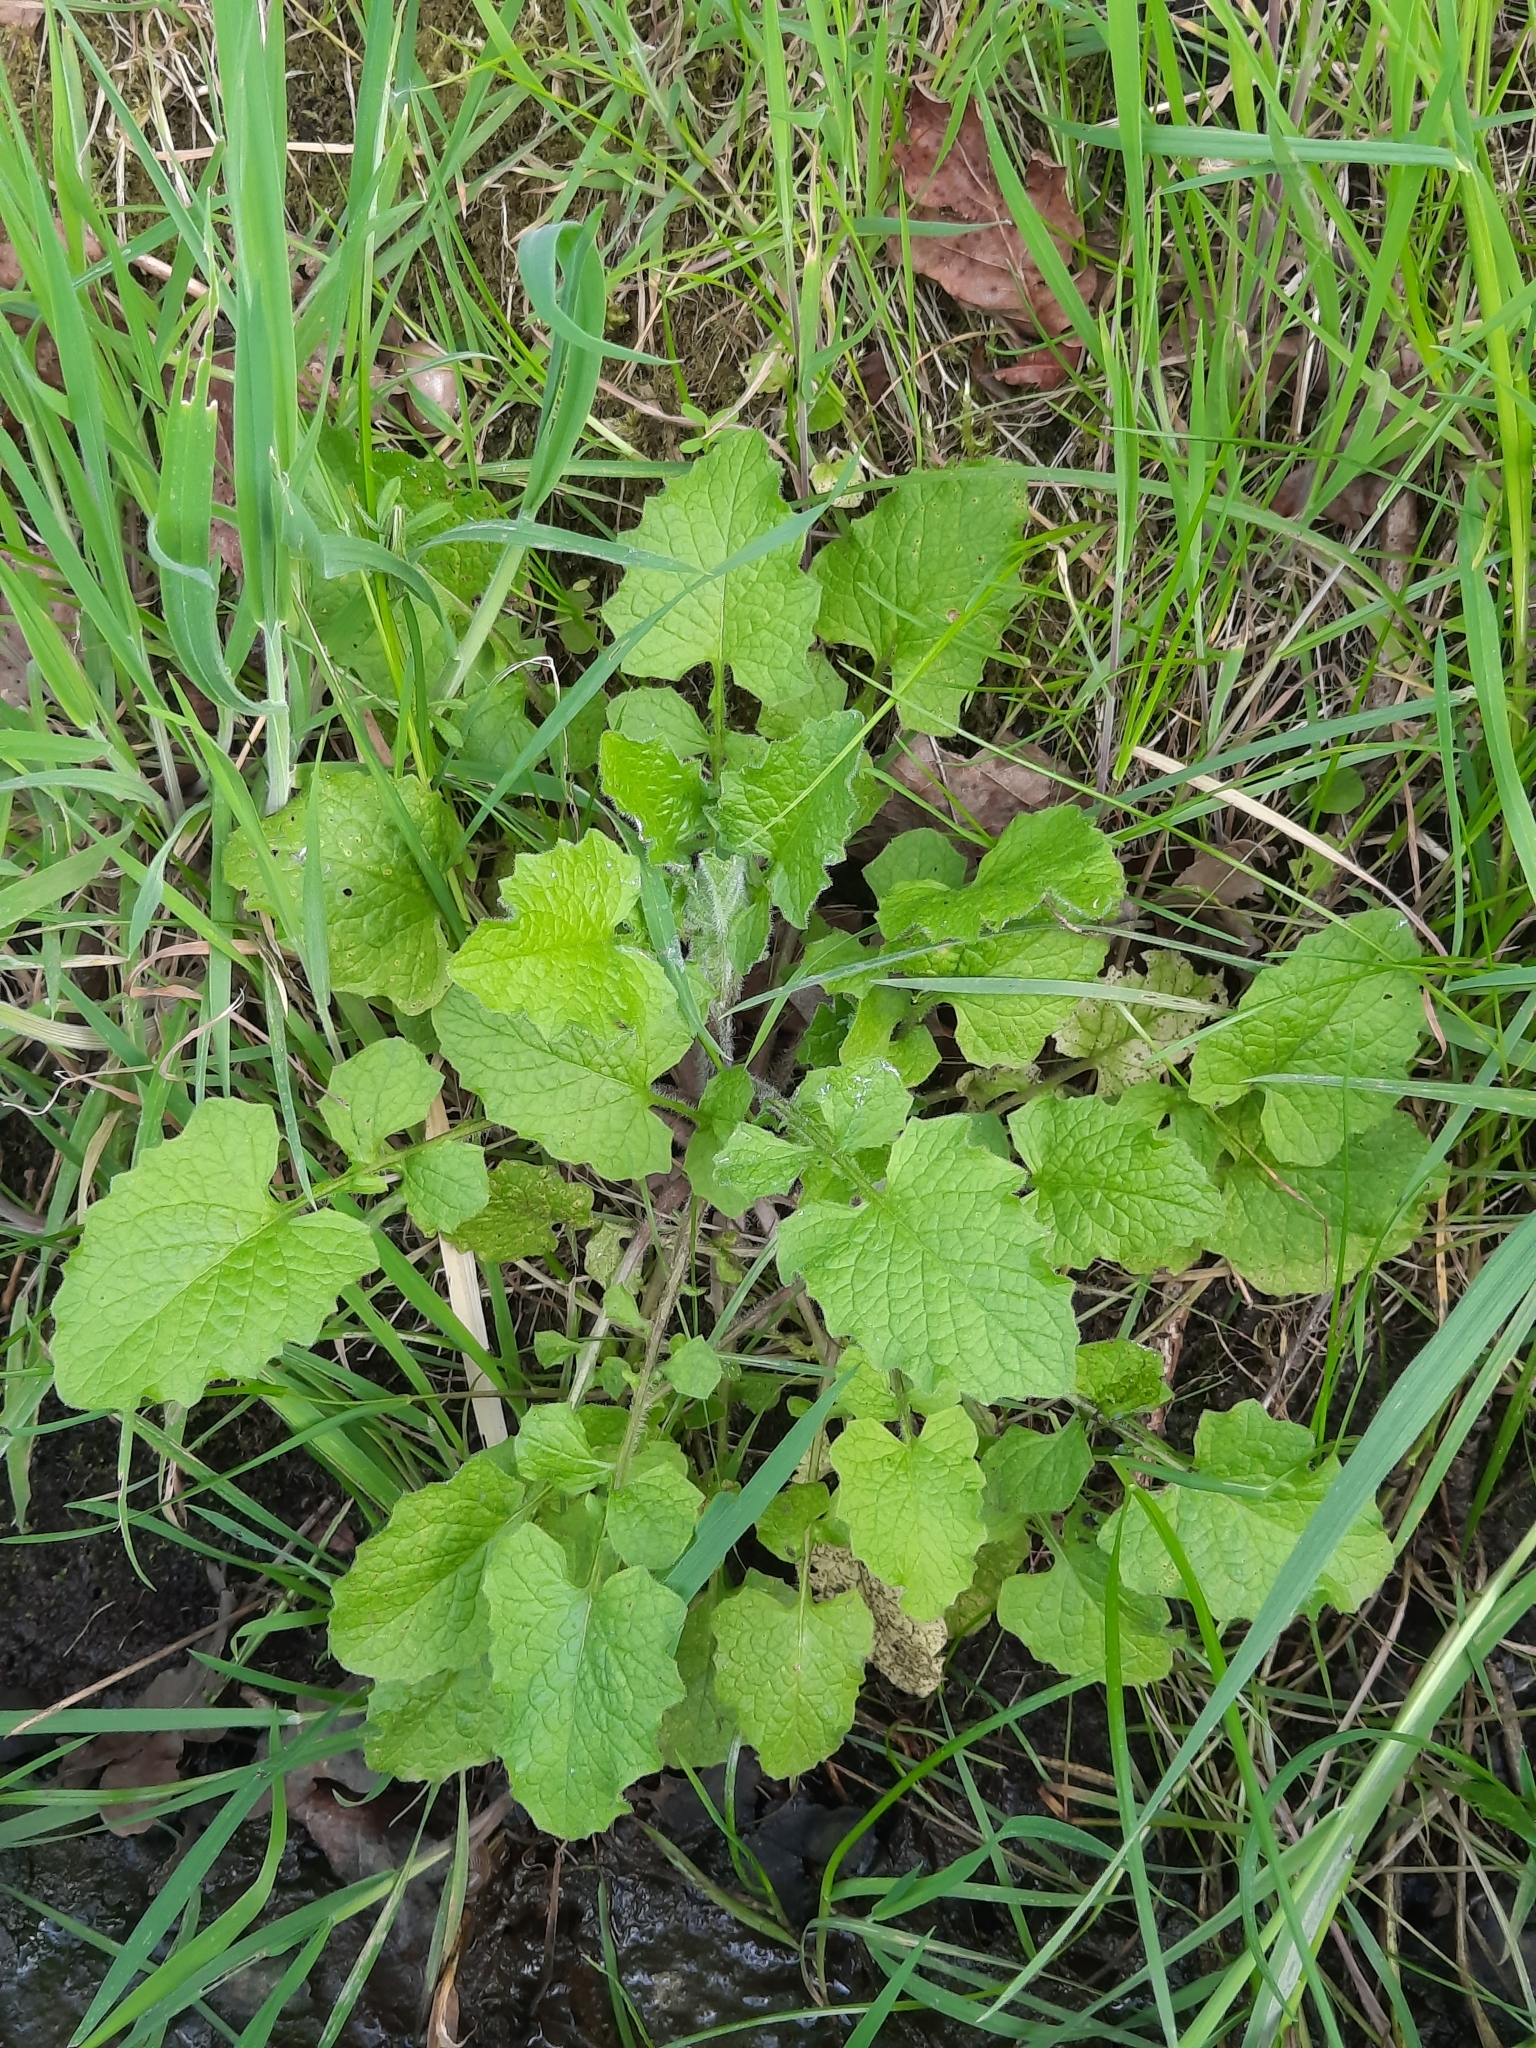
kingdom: Plantae
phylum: Tracheophyta
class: Magnoliopsida
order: Asterales
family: Asteraceae
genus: Lapsana
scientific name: Lapsana communis
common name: Nipplewort
